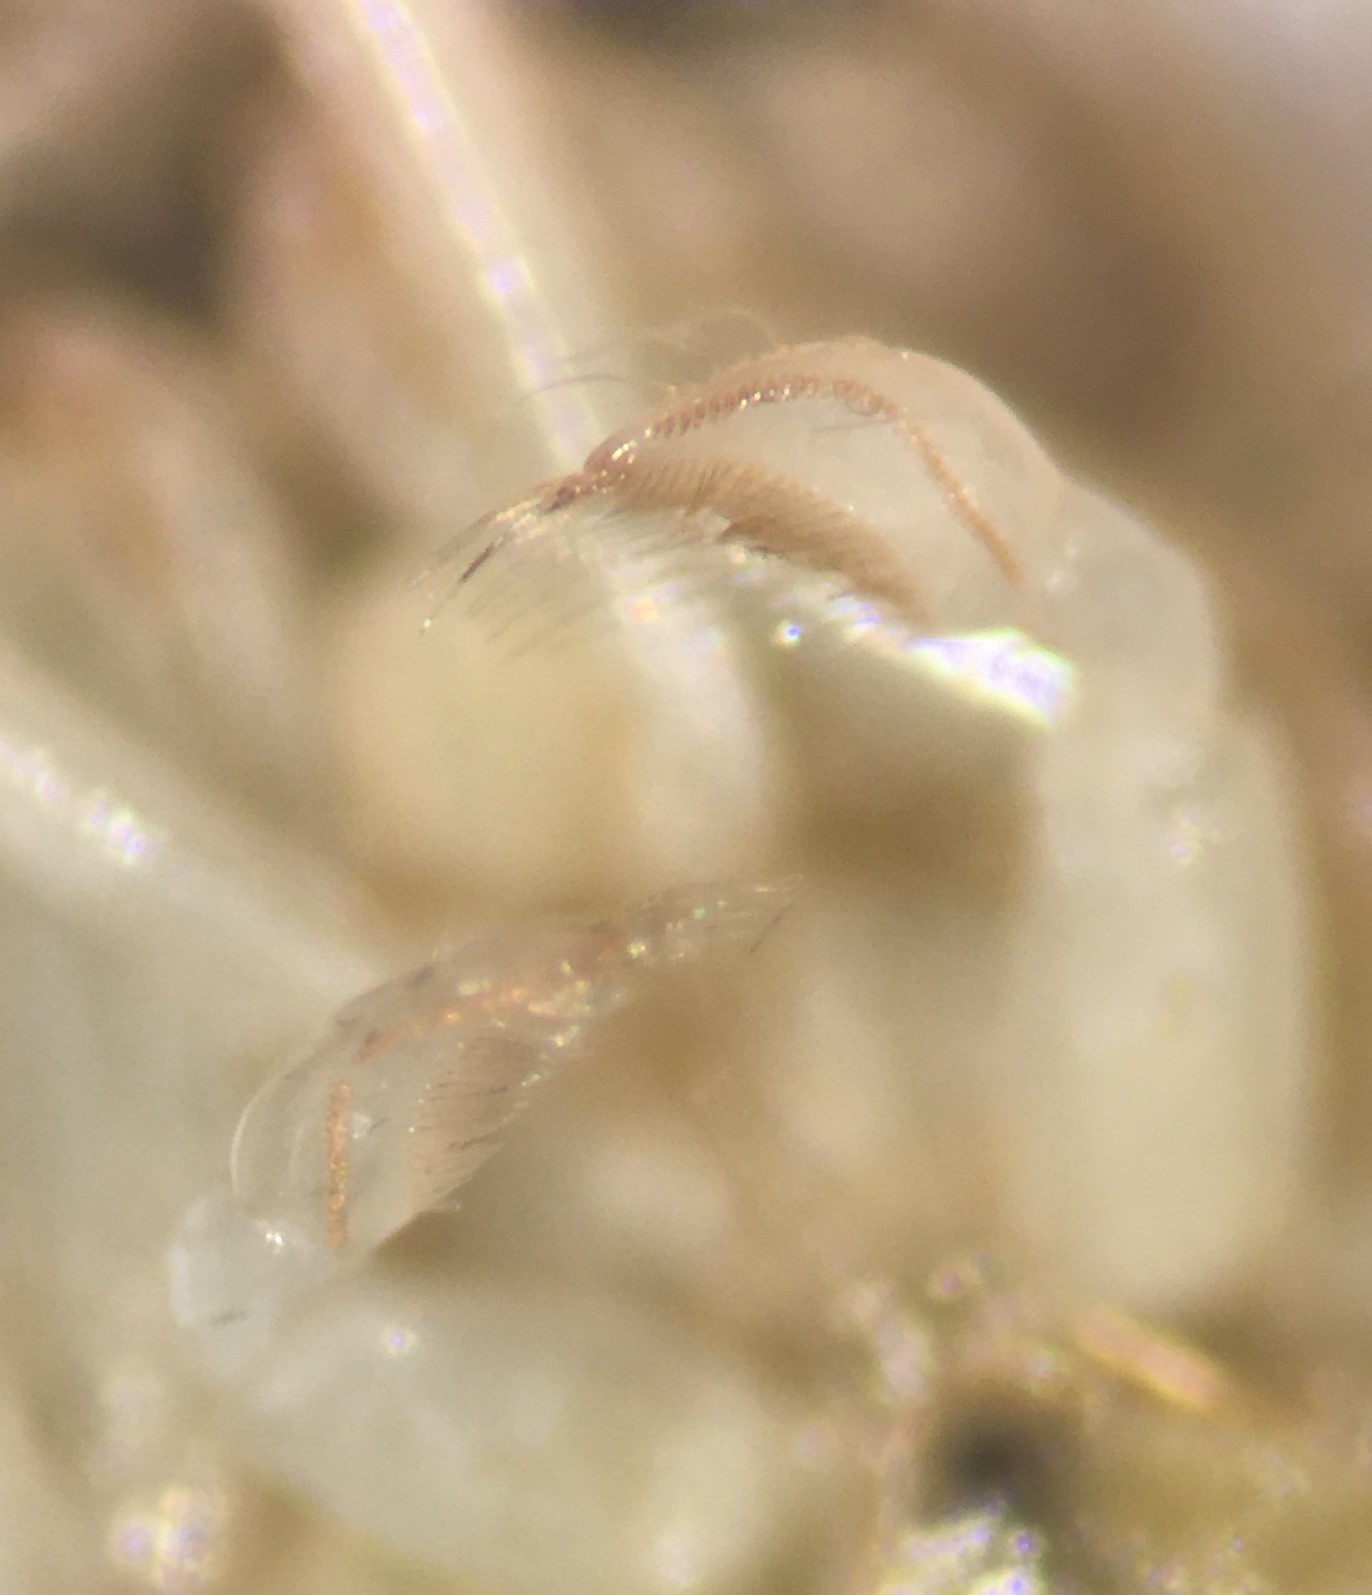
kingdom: Animalia
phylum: Arthropoda
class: Insecta
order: Hemiptera
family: Corixidae
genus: Sigara
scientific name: Sigara virginiensis
